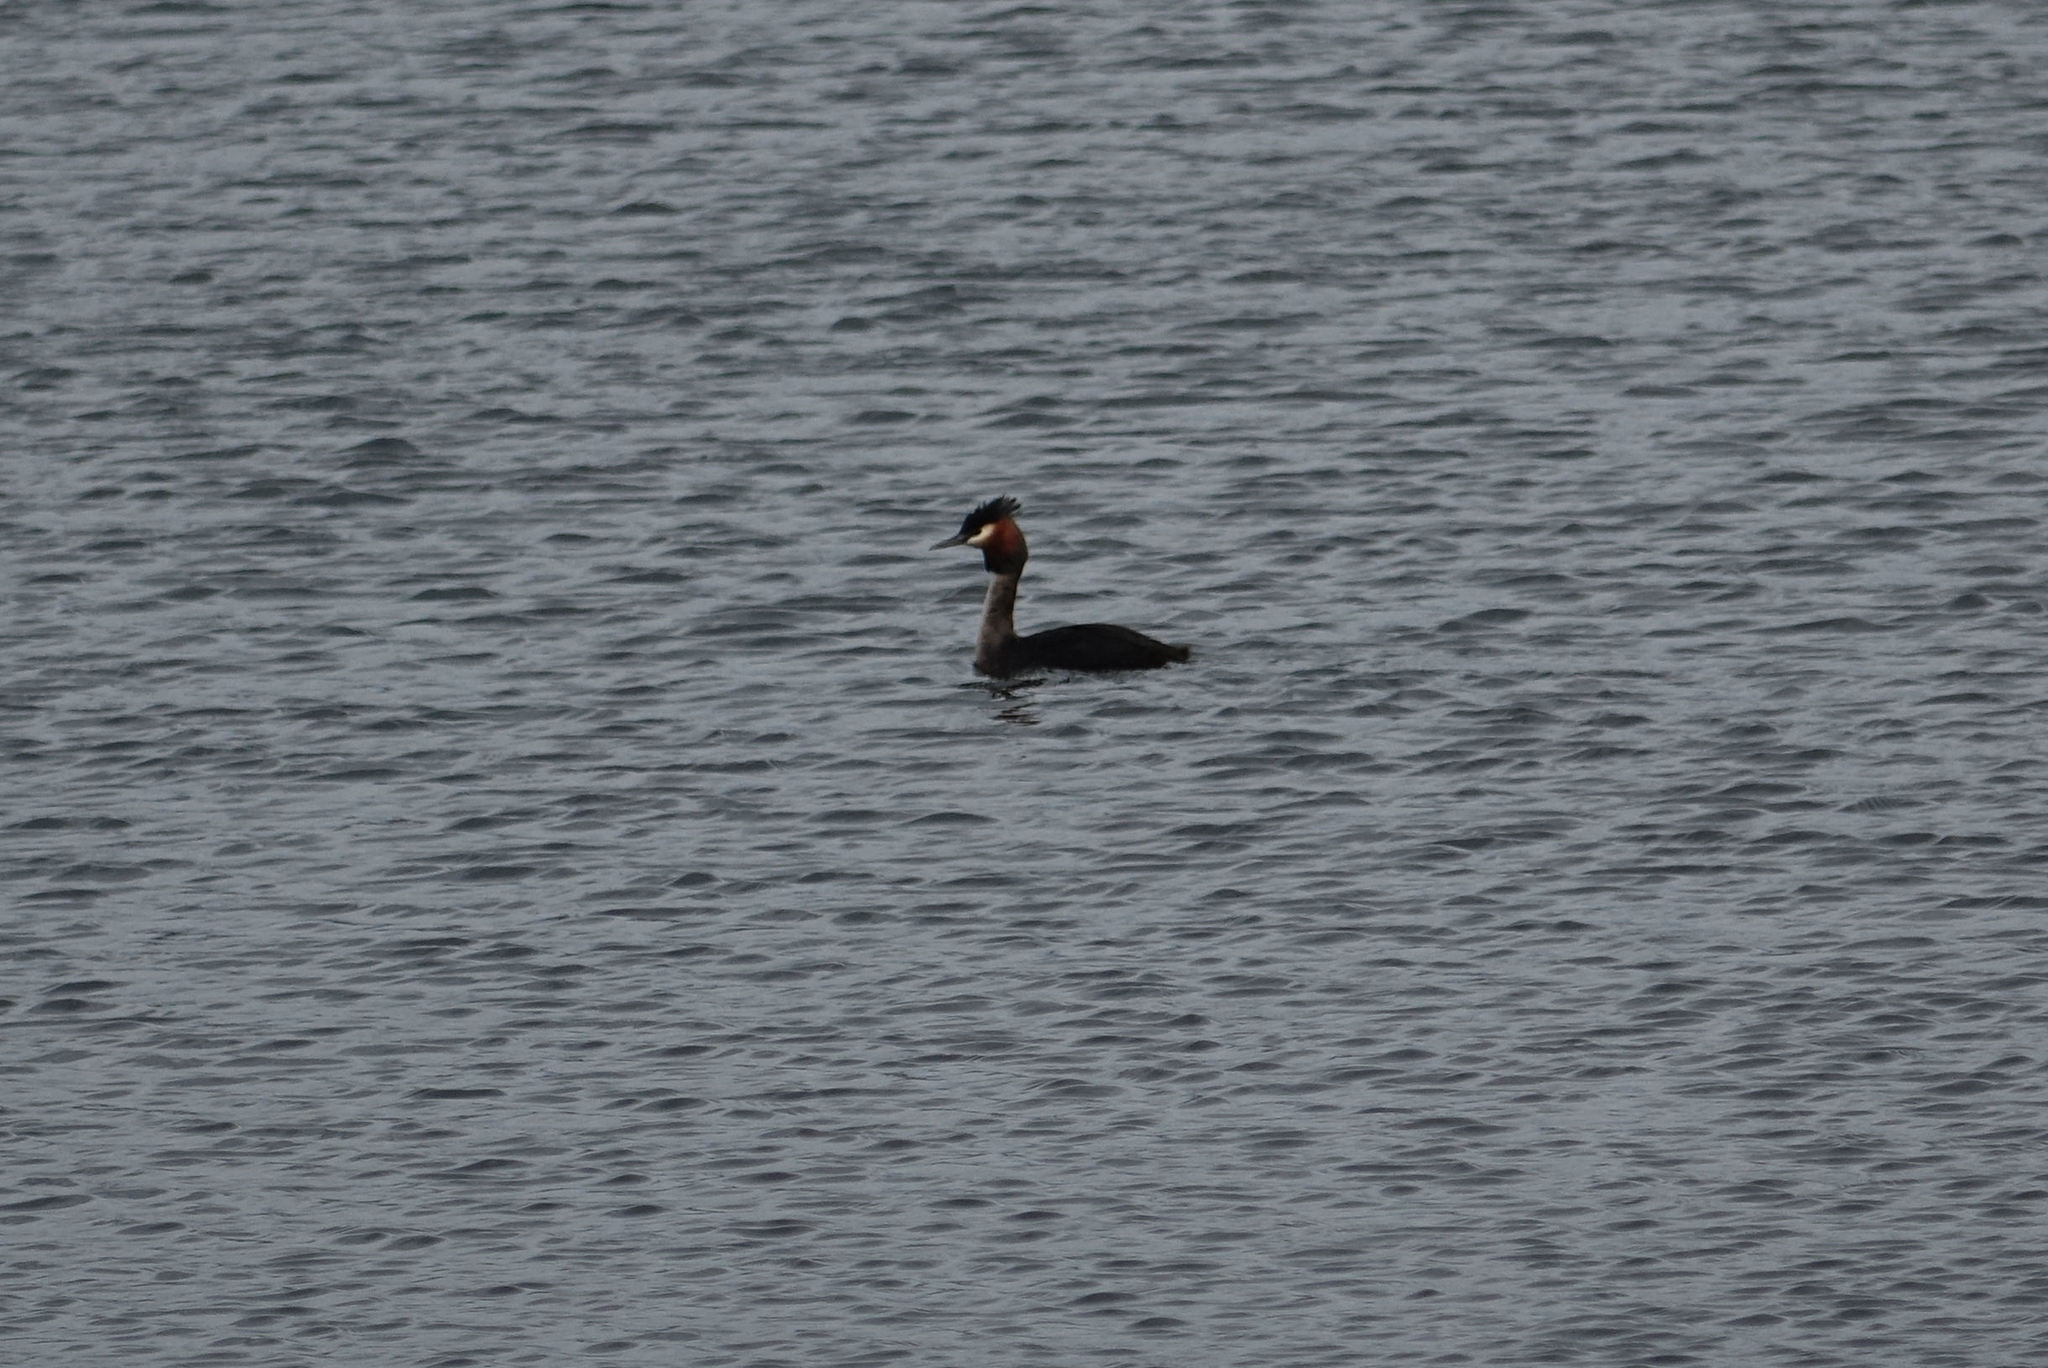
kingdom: Animalia
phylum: Chordata
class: Aves
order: Podicipediformes
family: Podicipedidae
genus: Podiceps
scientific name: Podiceps cristatus
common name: Great crested grebe
